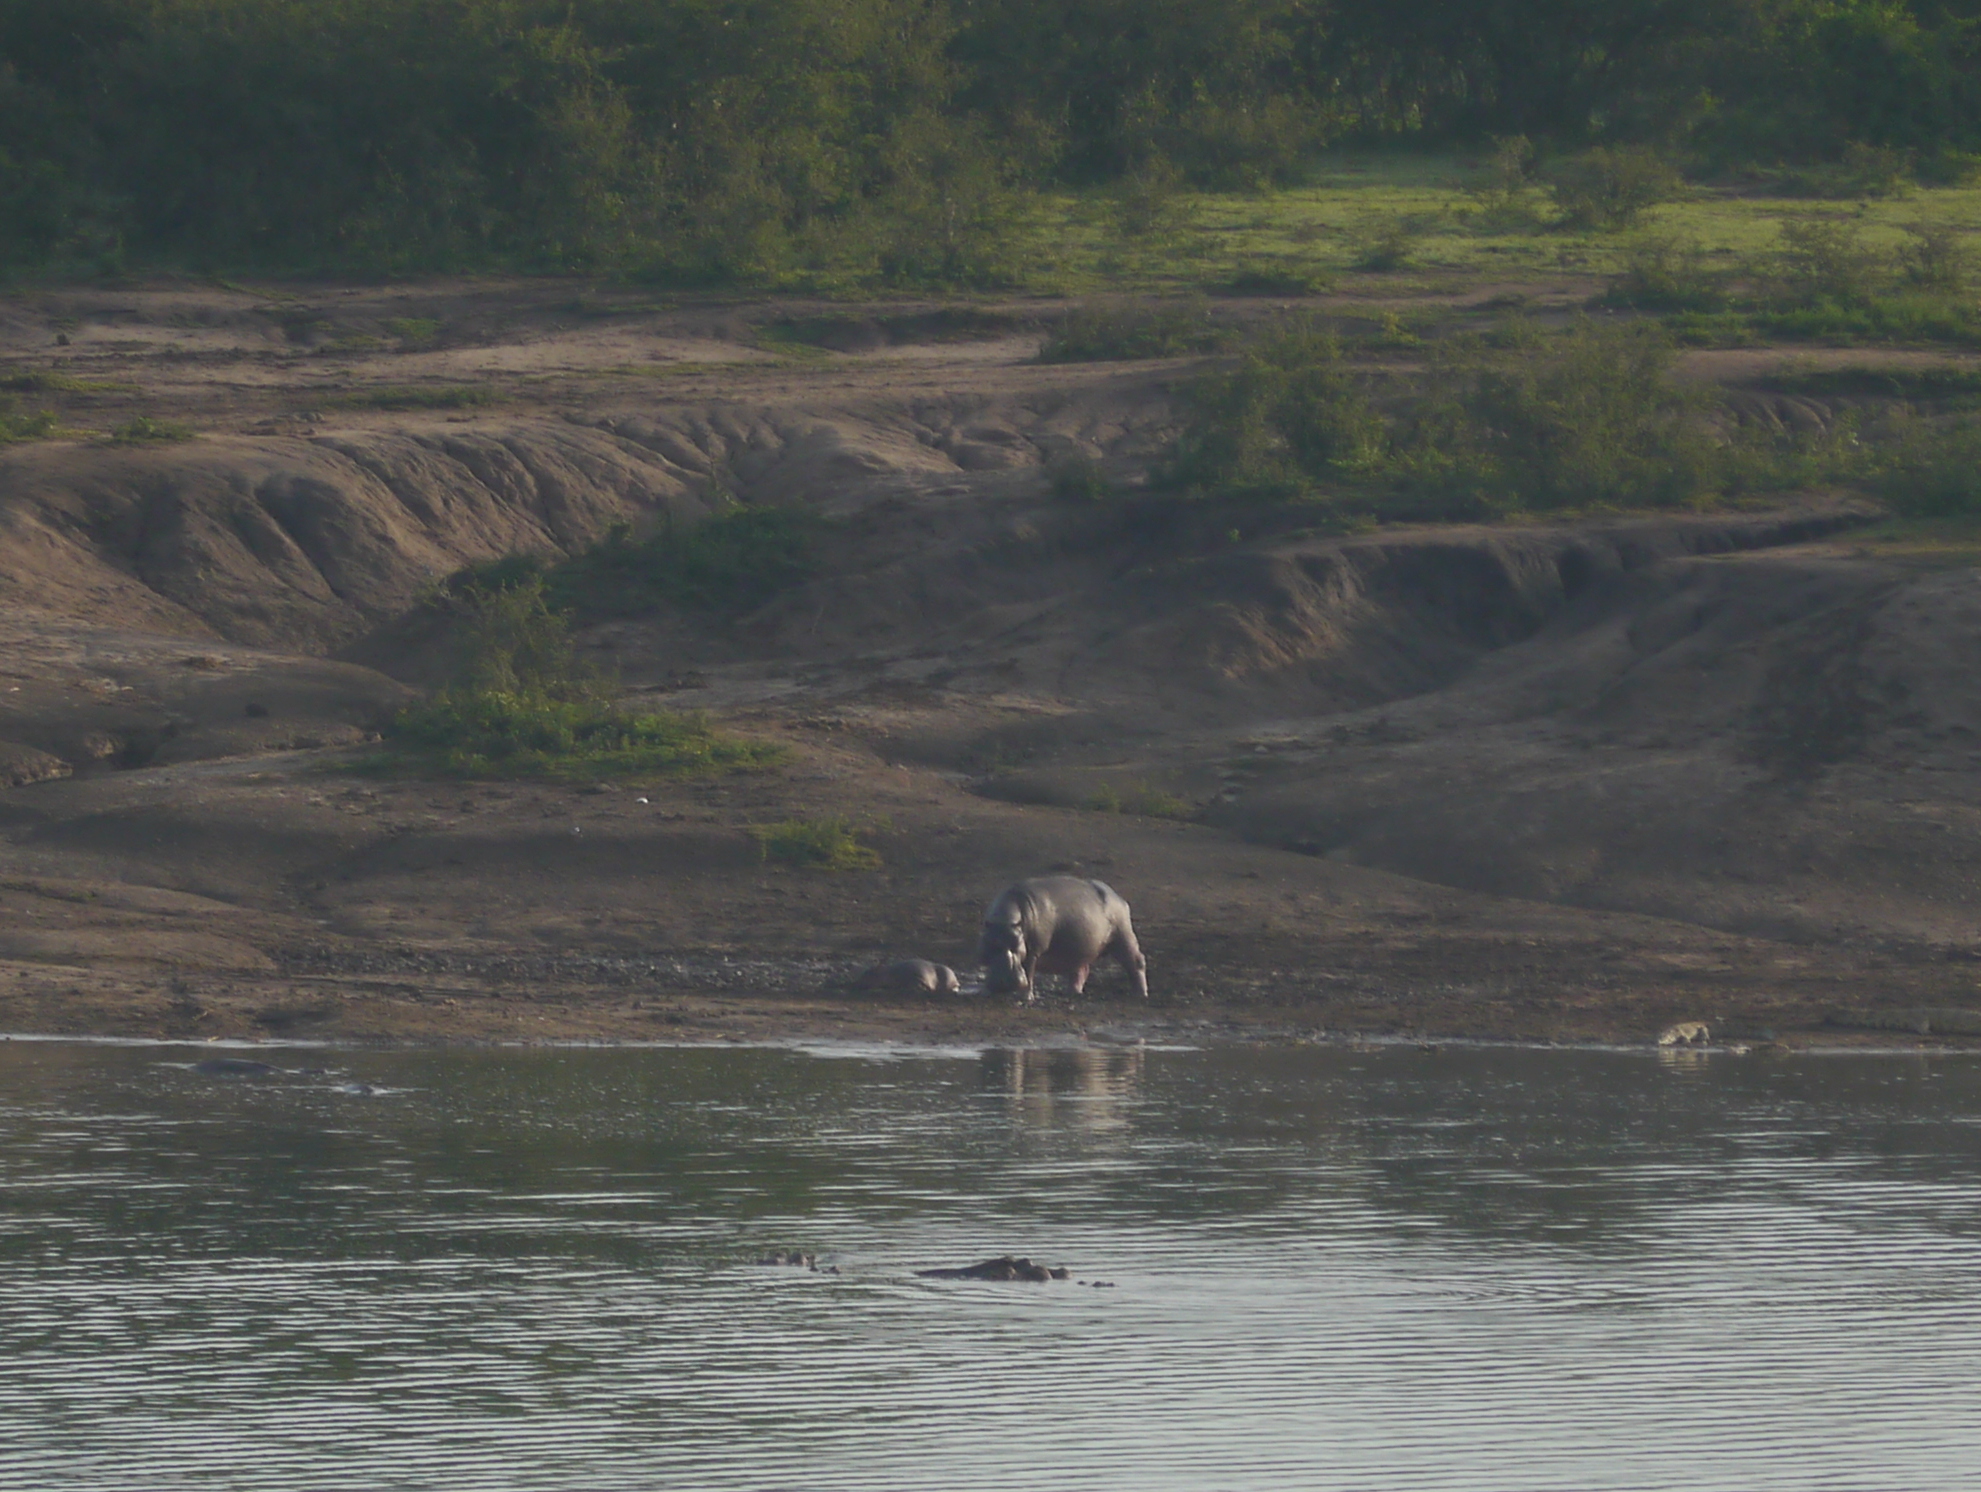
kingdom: Animalia
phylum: Chordata
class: Mammalia
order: Artiodactyla
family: Hippopotamidae
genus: Hippopotamus
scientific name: Hippopotamus amphibius
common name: Common hippopotamus
